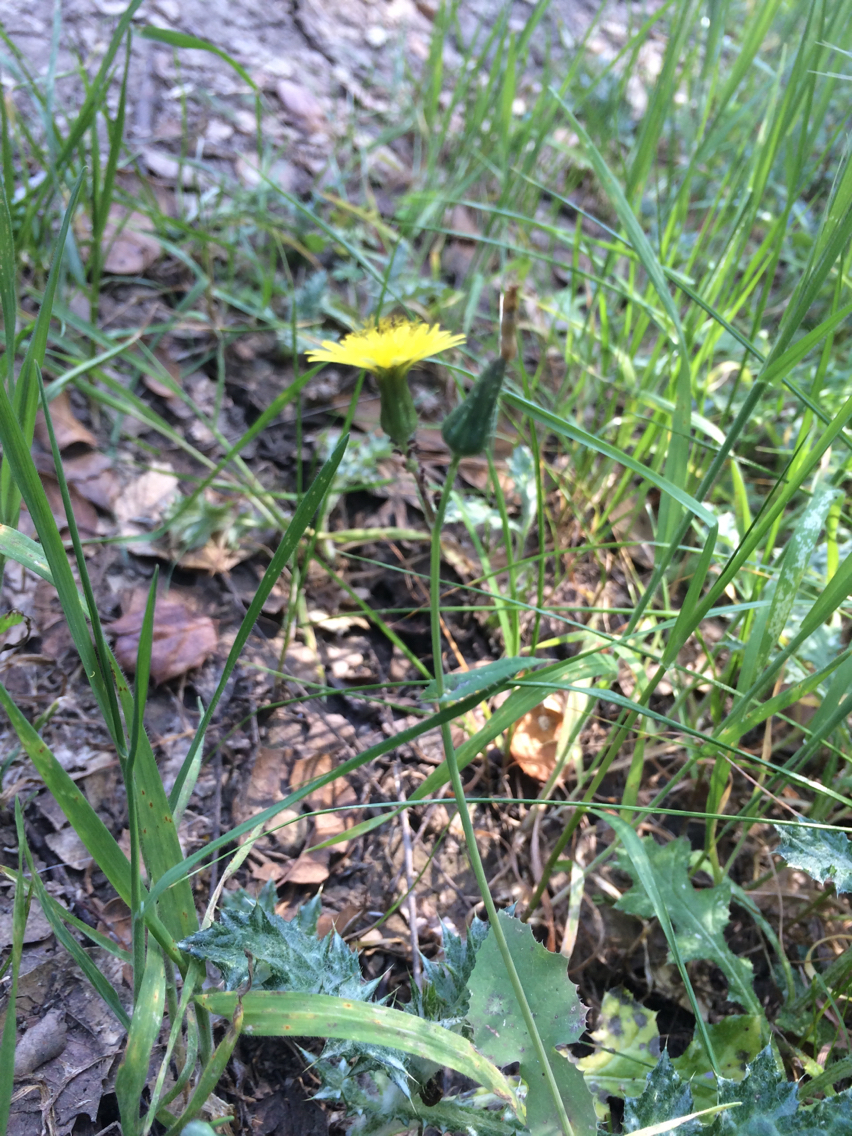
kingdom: Plantae
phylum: Tracheophyta
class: Magnoliopsida
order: Asterales
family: Asteraceae
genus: Sonchus
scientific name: Sonchus oleraceus
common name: Common sowthistle
